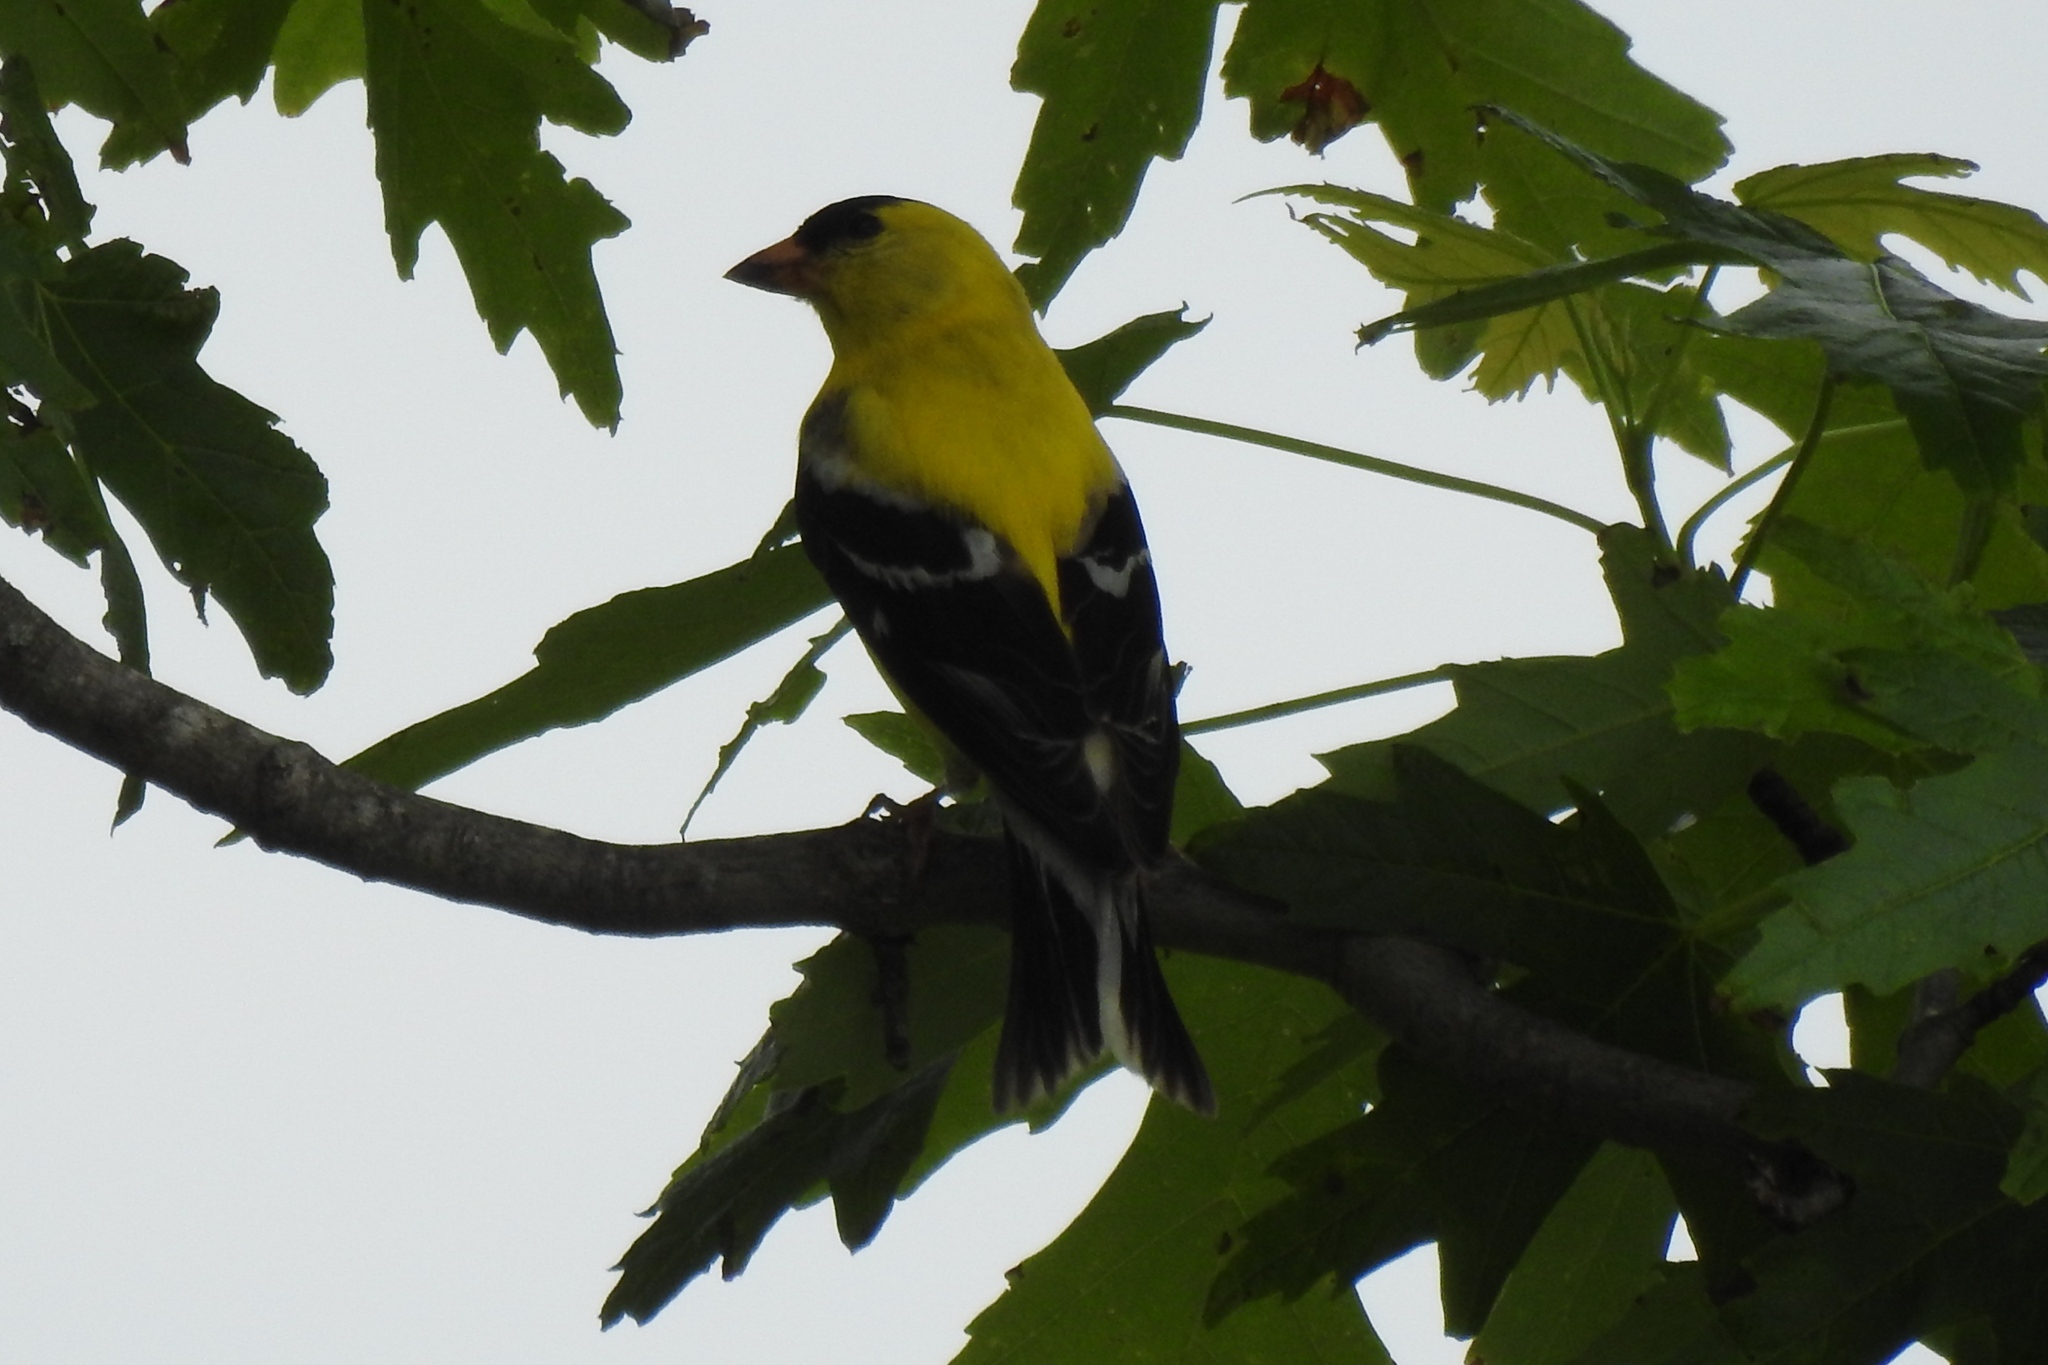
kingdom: Animalia
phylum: Chordata
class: Aves
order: Passeriformes
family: Fringillidae
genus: Spinus
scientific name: Spinus tristis
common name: American goldfinch
